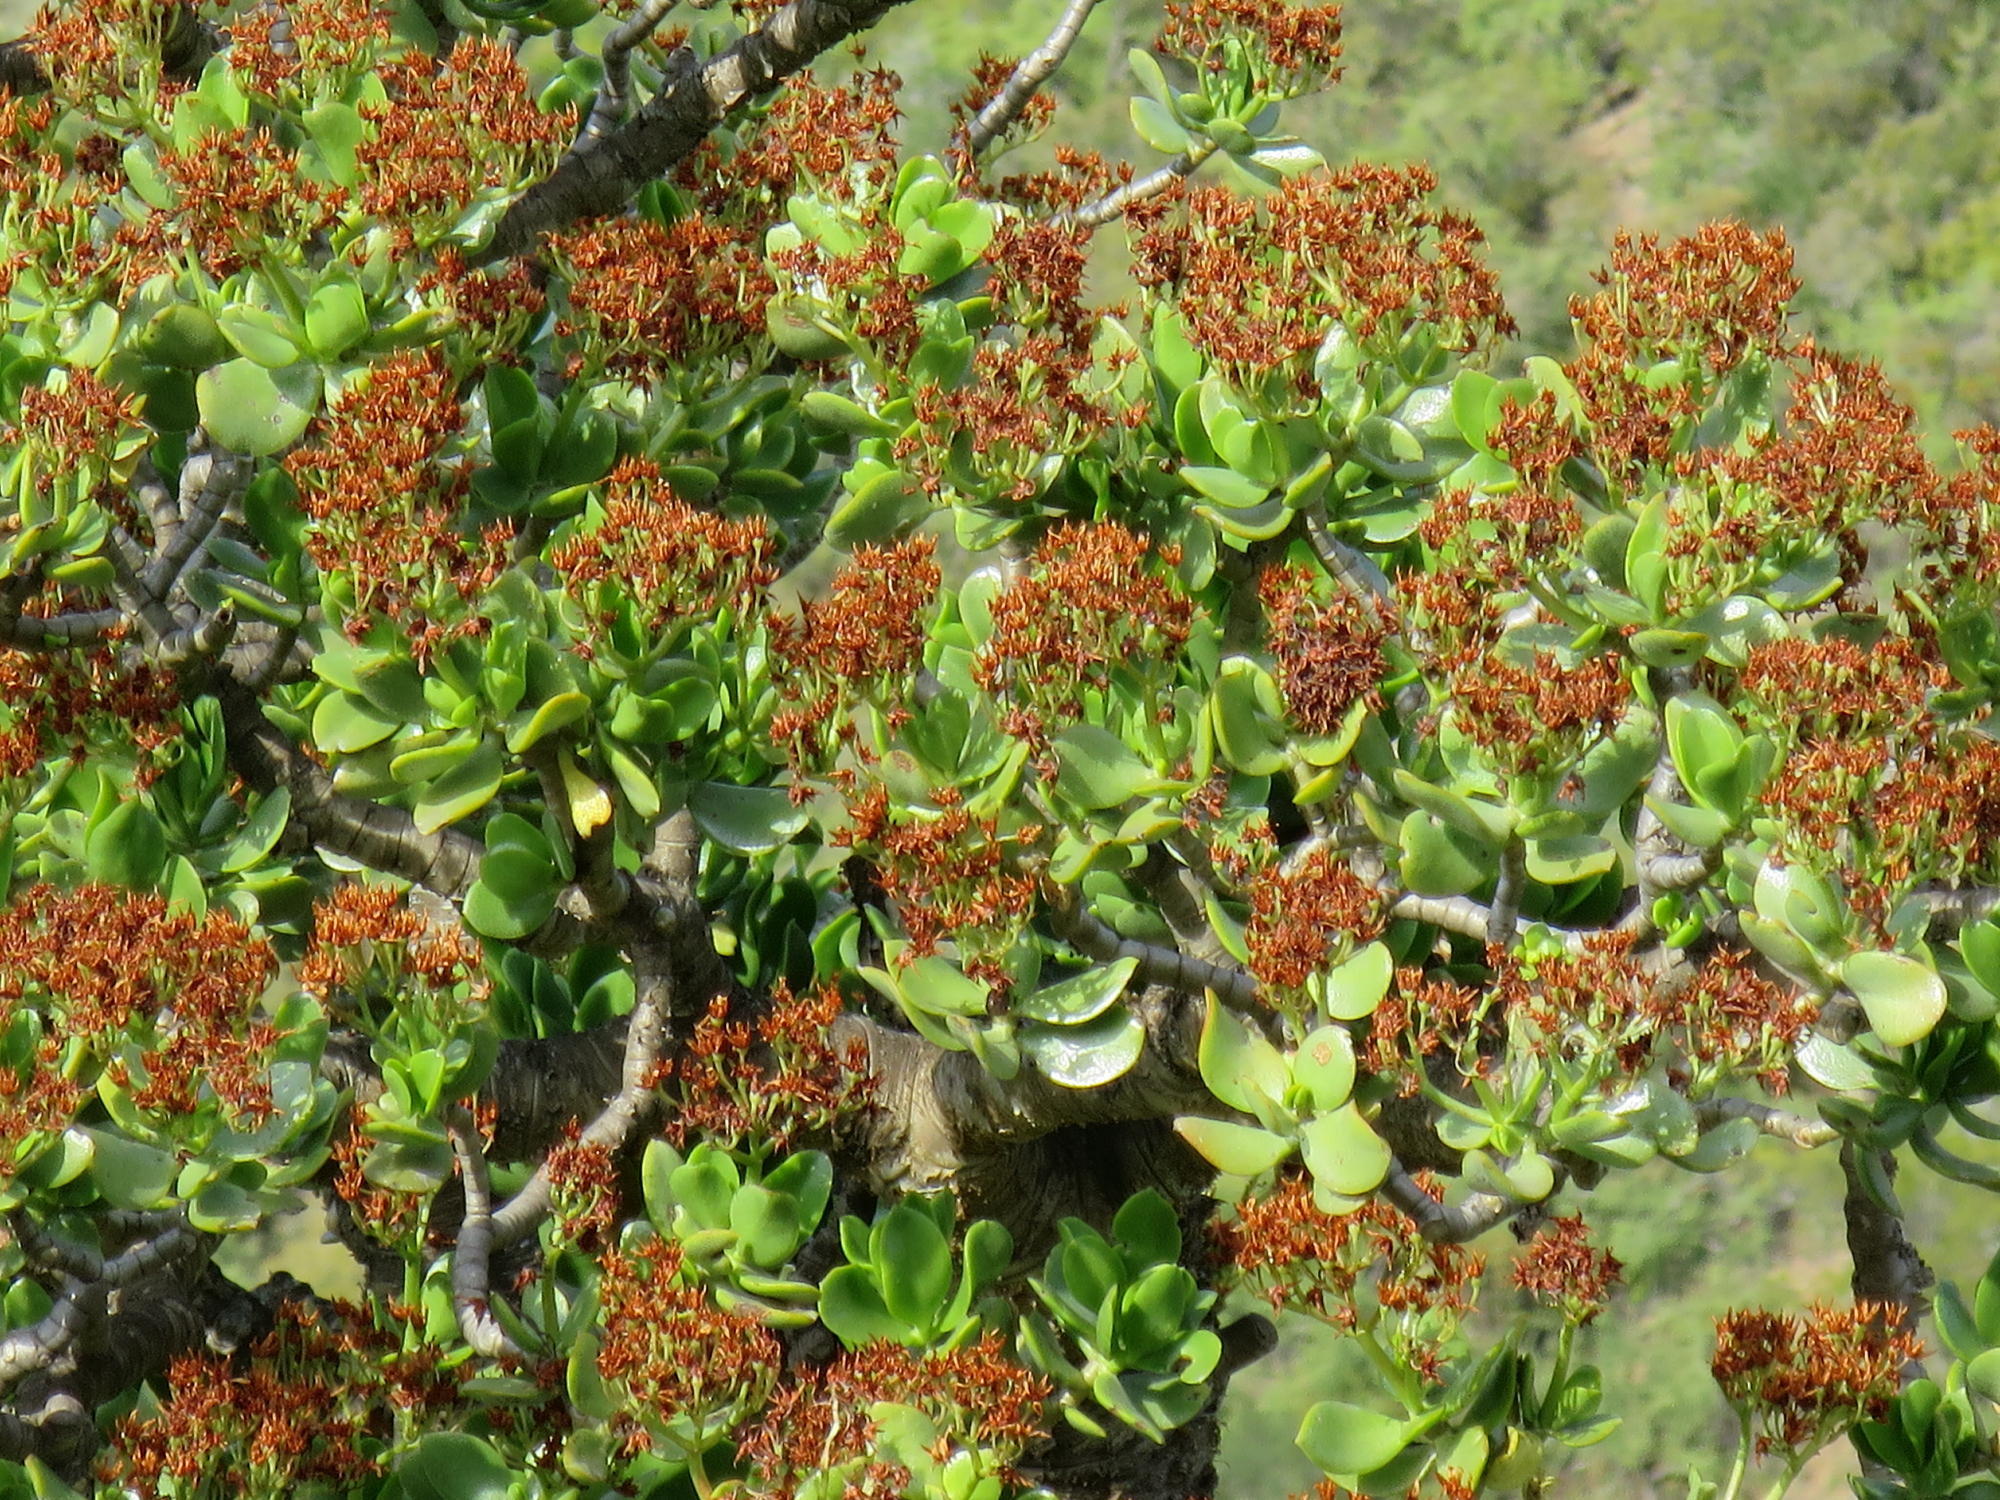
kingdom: Plantae
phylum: Tracheophyta
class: Magnoliopsida
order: Saxifragales
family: Crassulaceae
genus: Crassula
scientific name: Crassula ovata
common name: Jade plant
